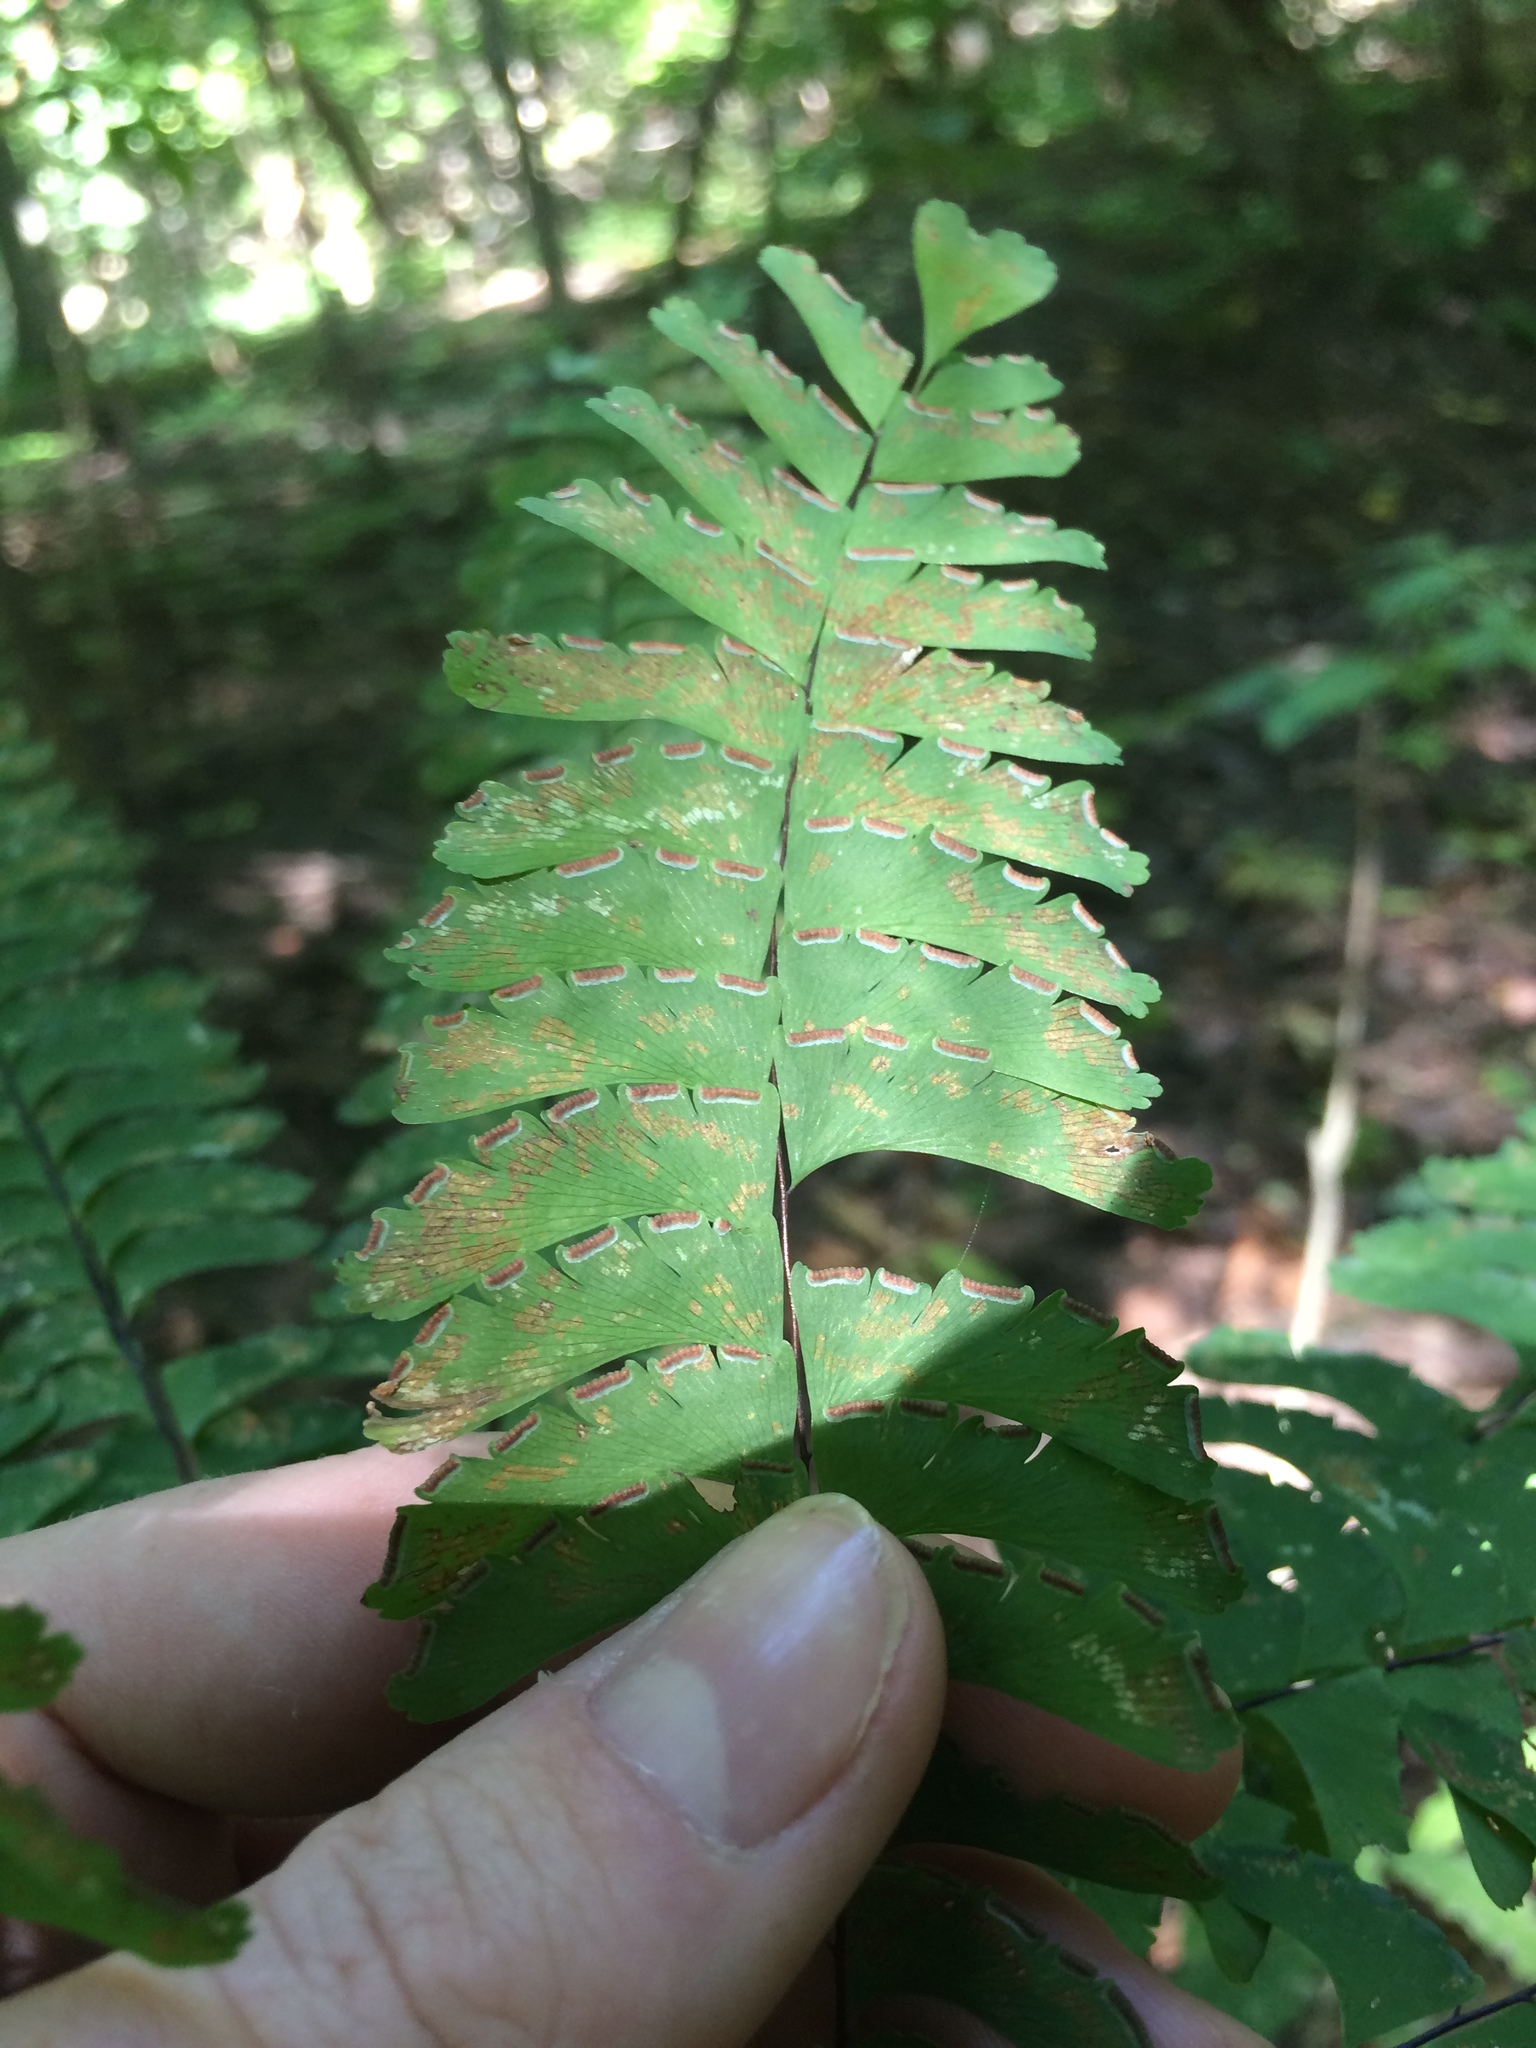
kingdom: Plantae
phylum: Tracheophyta
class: Polypodiopsida
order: Polypodiales
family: Pteridaceae
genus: Adiantum
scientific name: Adiantum pedatum
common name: Five-finger fern
